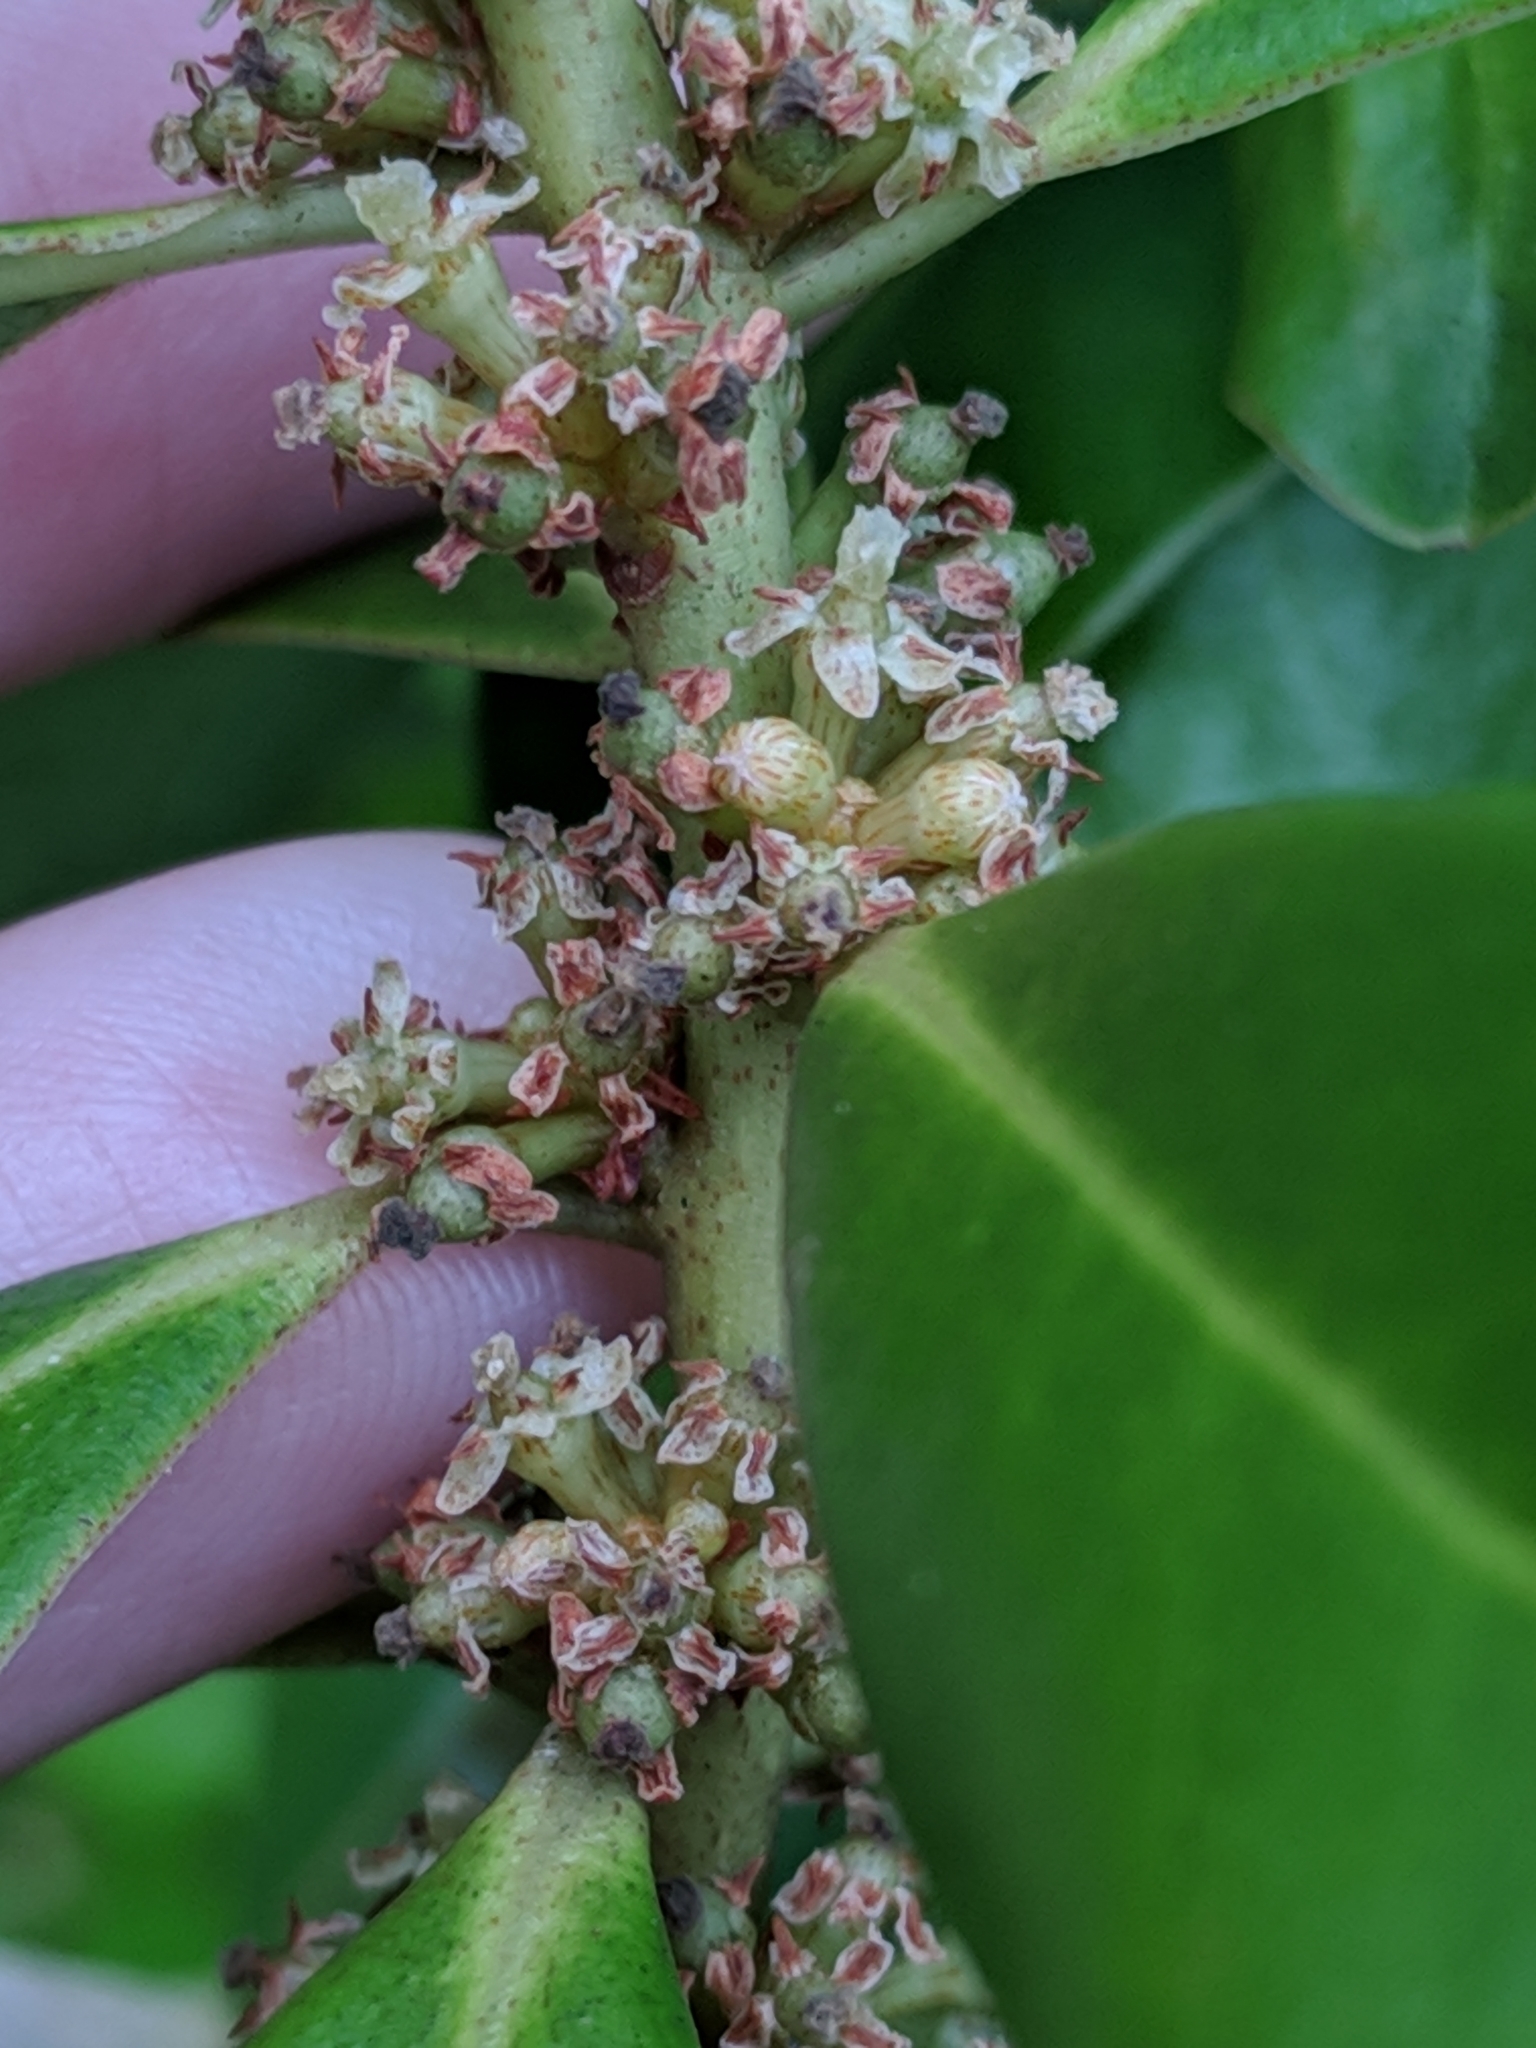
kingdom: Plantae
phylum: Tracheophyta
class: Magnoliopsida
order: Ericales
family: Primulaceae
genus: Myrsine
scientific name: Myrsine floridana
